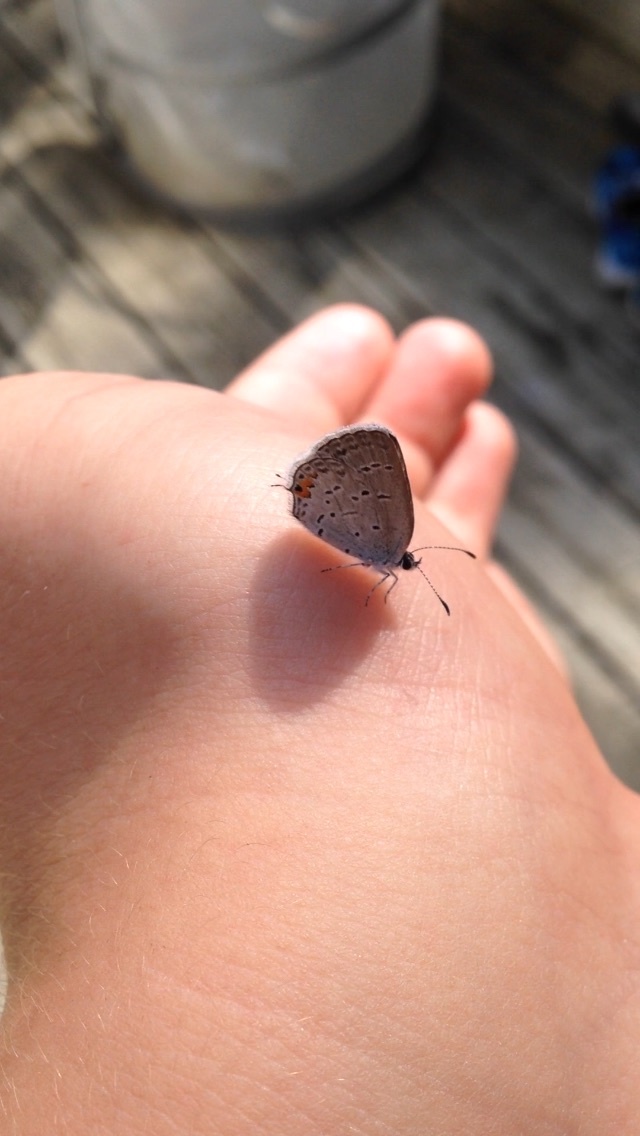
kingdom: Animalia
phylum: Arthropoda
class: Insecta
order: Lepidoptera
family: Lycaenidae
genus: Elkalyce
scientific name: Elkalyce comyntas
